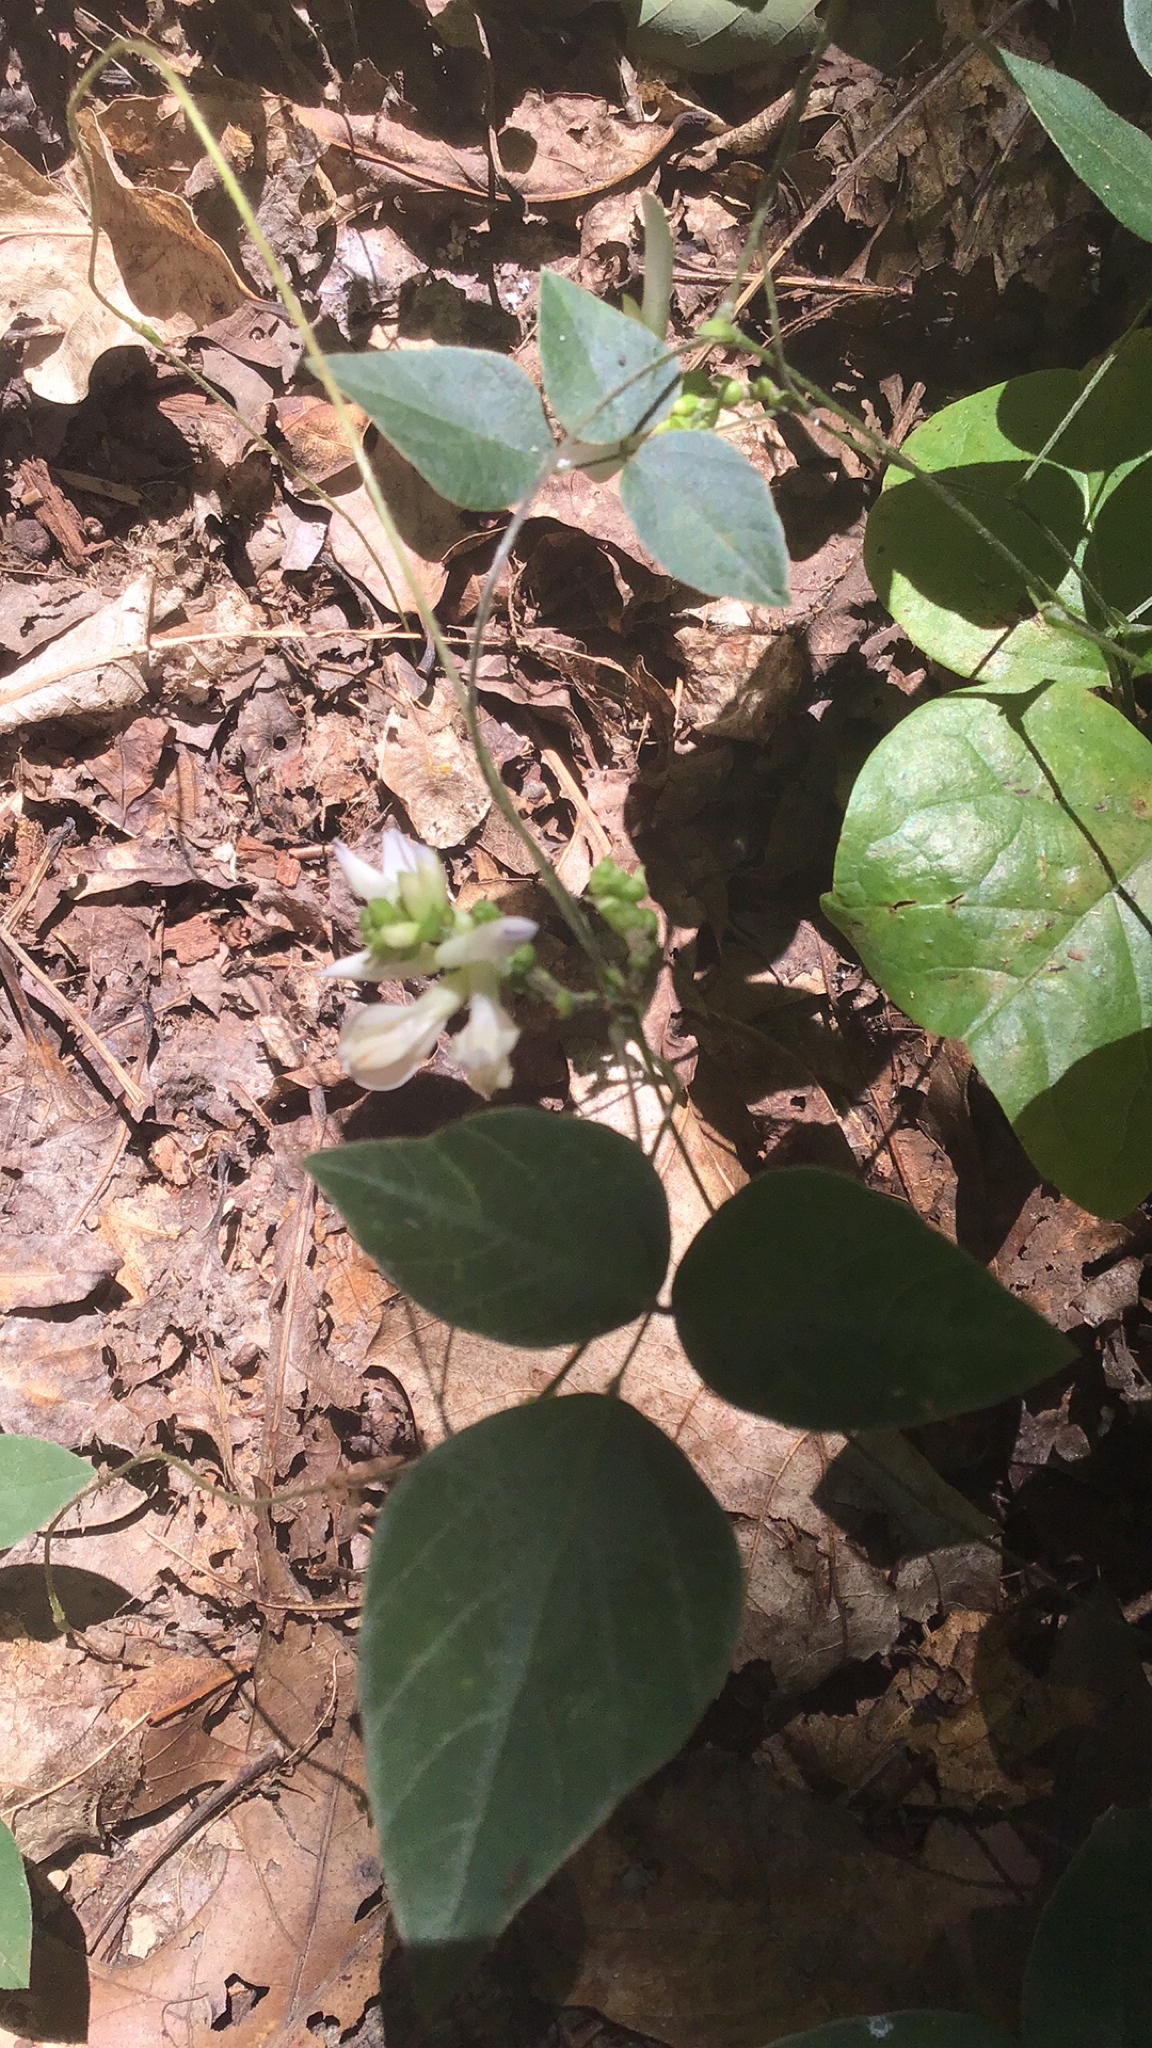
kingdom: Plantae
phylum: Tracheophyta
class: Magnoliopsida
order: Fabales
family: Fabaceae
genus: Amphicarpaea
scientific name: Amphicarpaea bracteata
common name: American hog peanut
